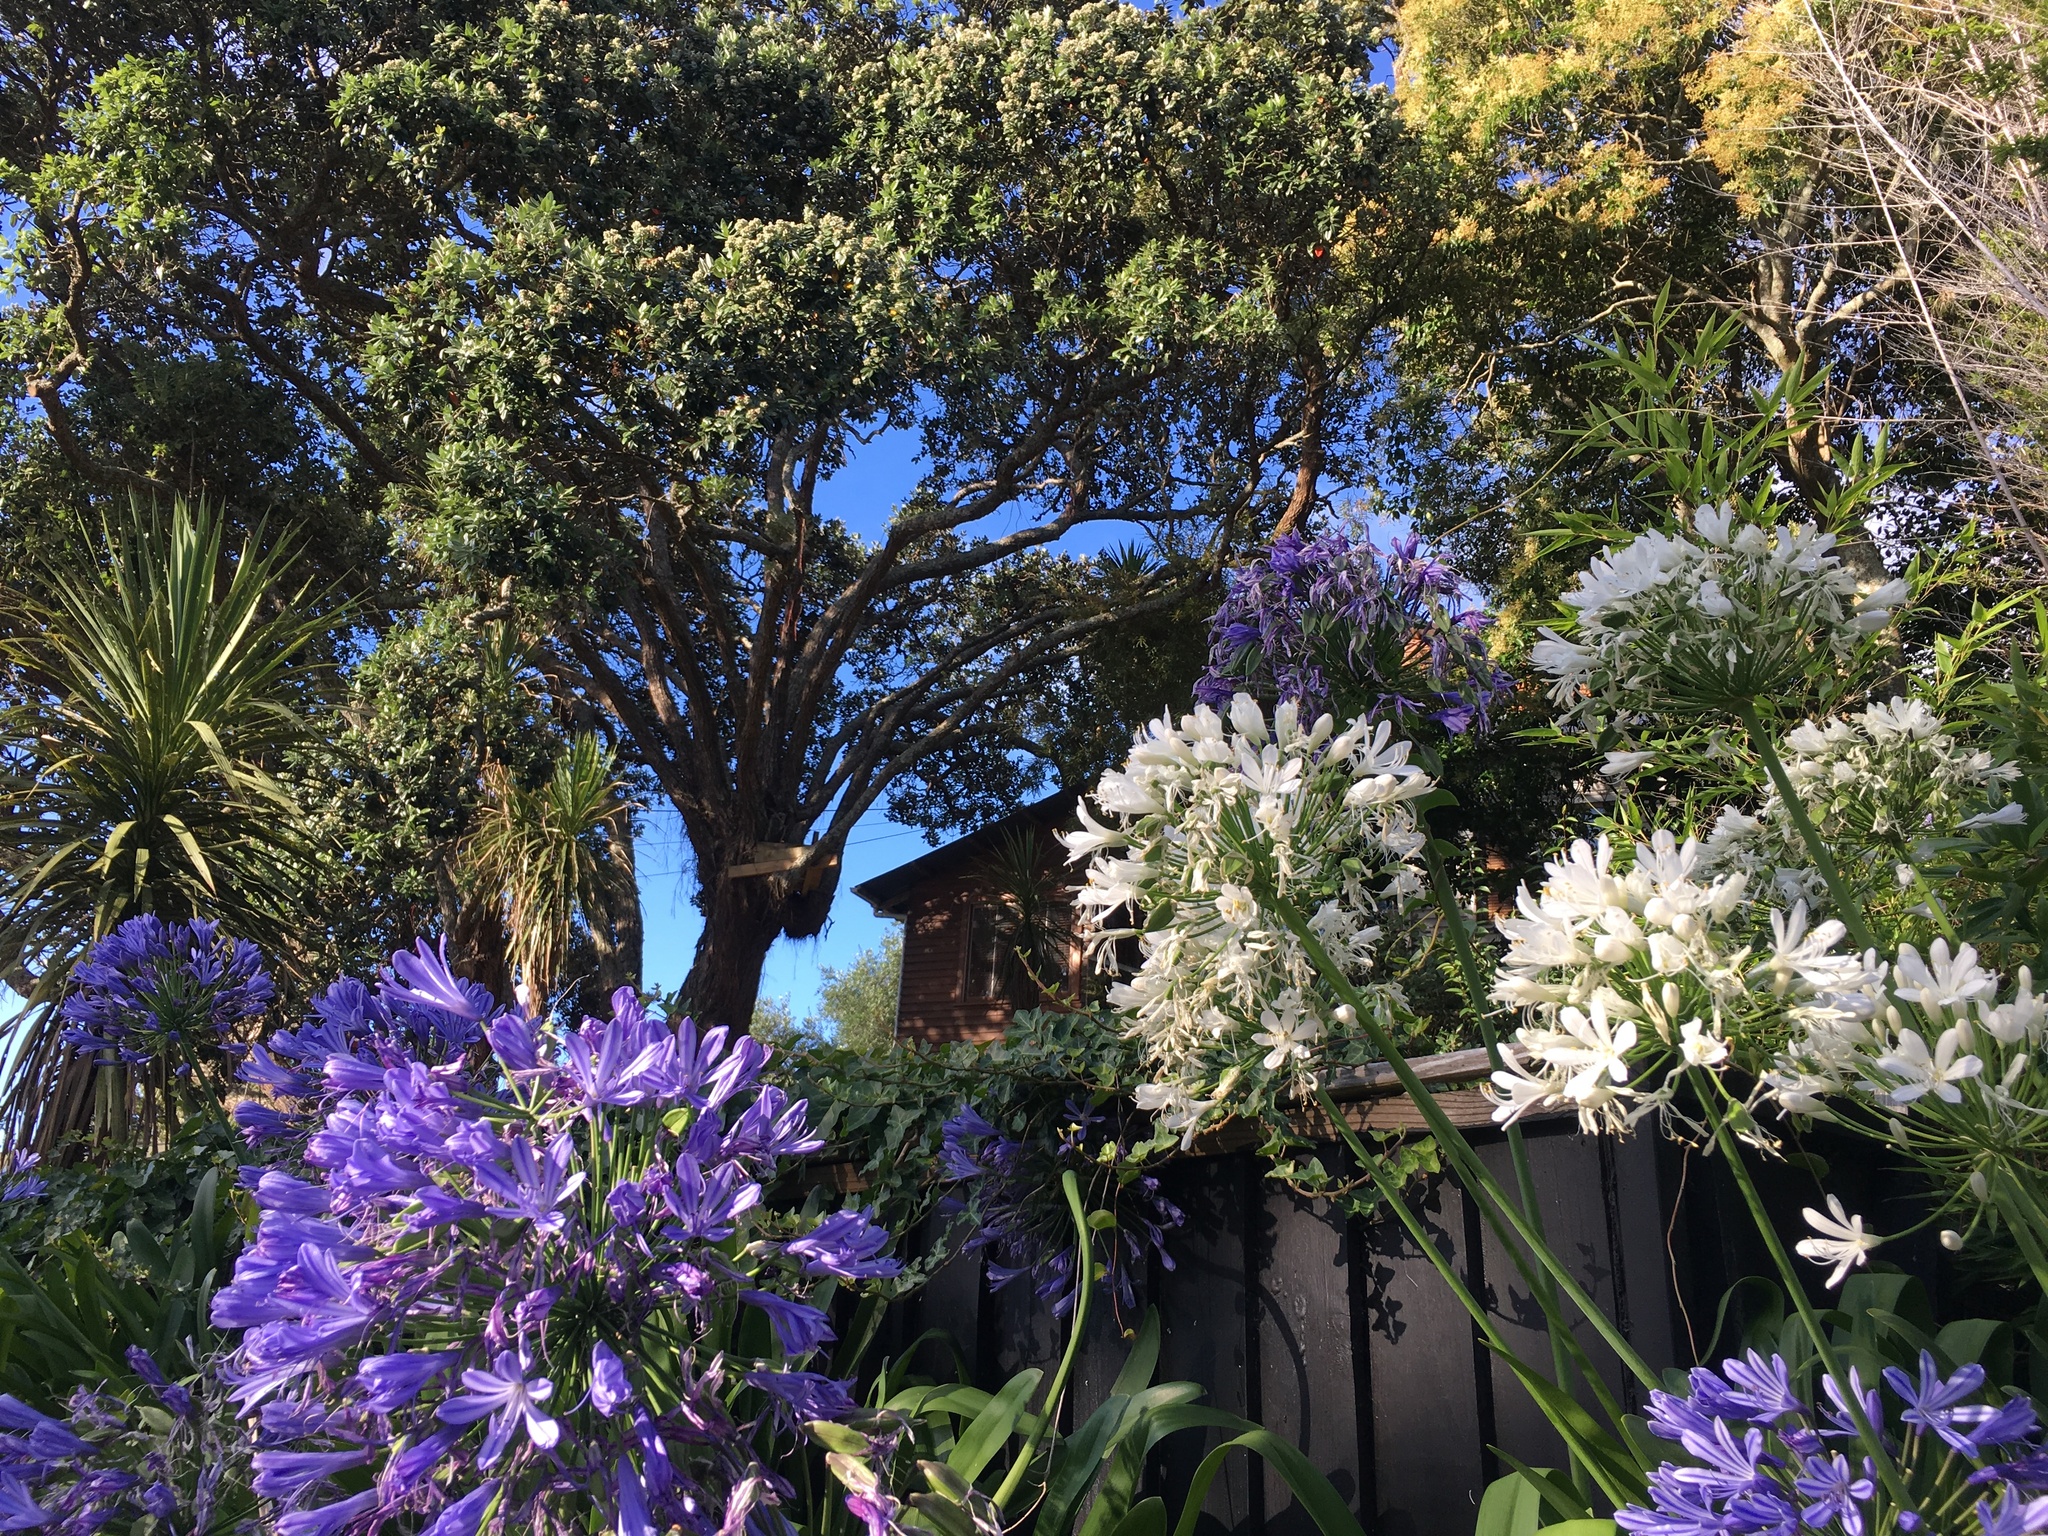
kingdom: Plantae
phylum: Tracheophyta
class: Liliopsida
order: Asparagales
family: Amaryllidaceae
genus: Agapanthus
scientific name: Agapanthus praecox
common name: African-lily
